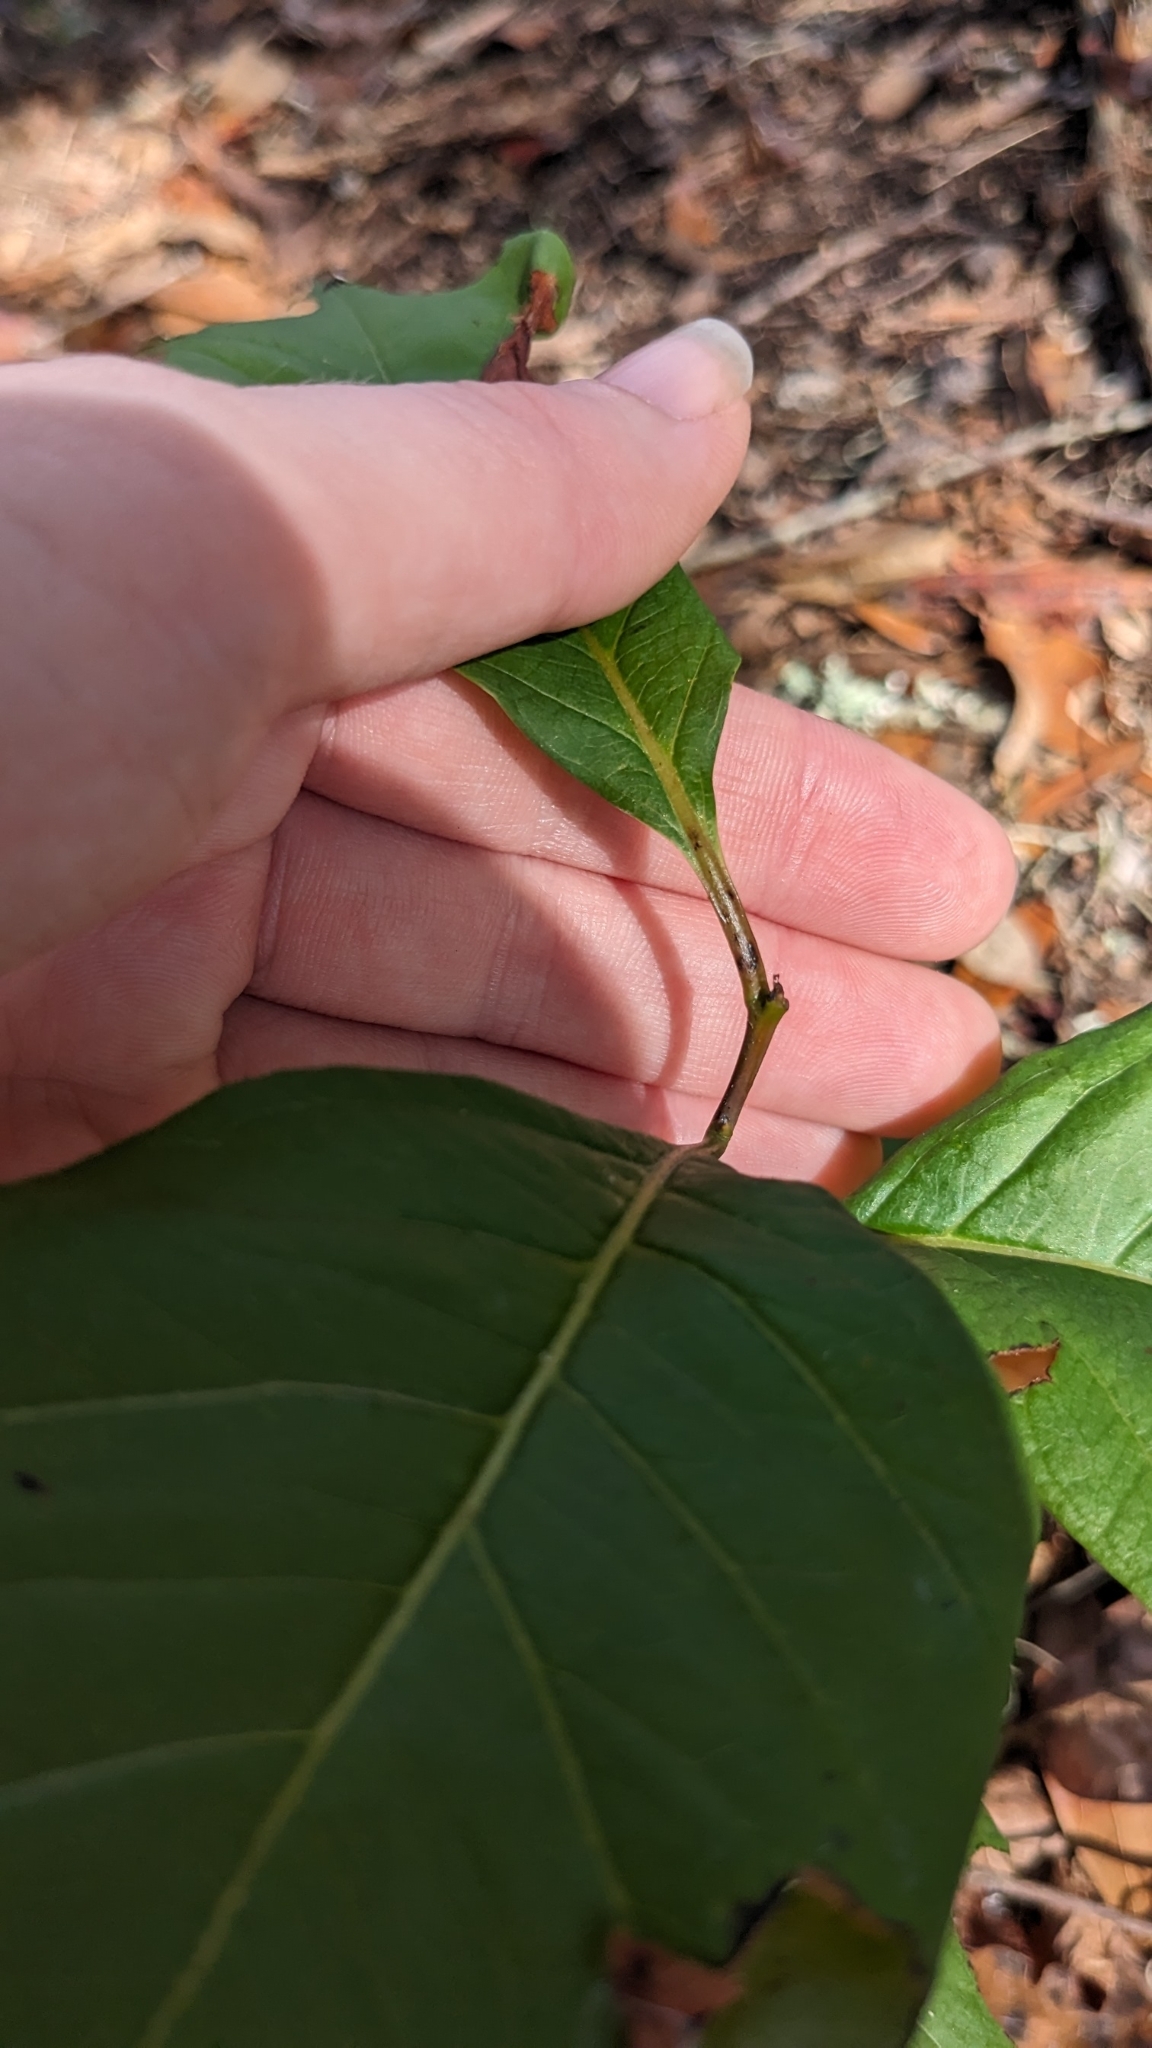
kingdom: Plantae
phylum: Tracheophyta
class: Magnoliopsida
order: Ericales
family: Ebenaceae
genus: Diospyros
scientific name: Diospyros virginiana
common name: Persimmon
